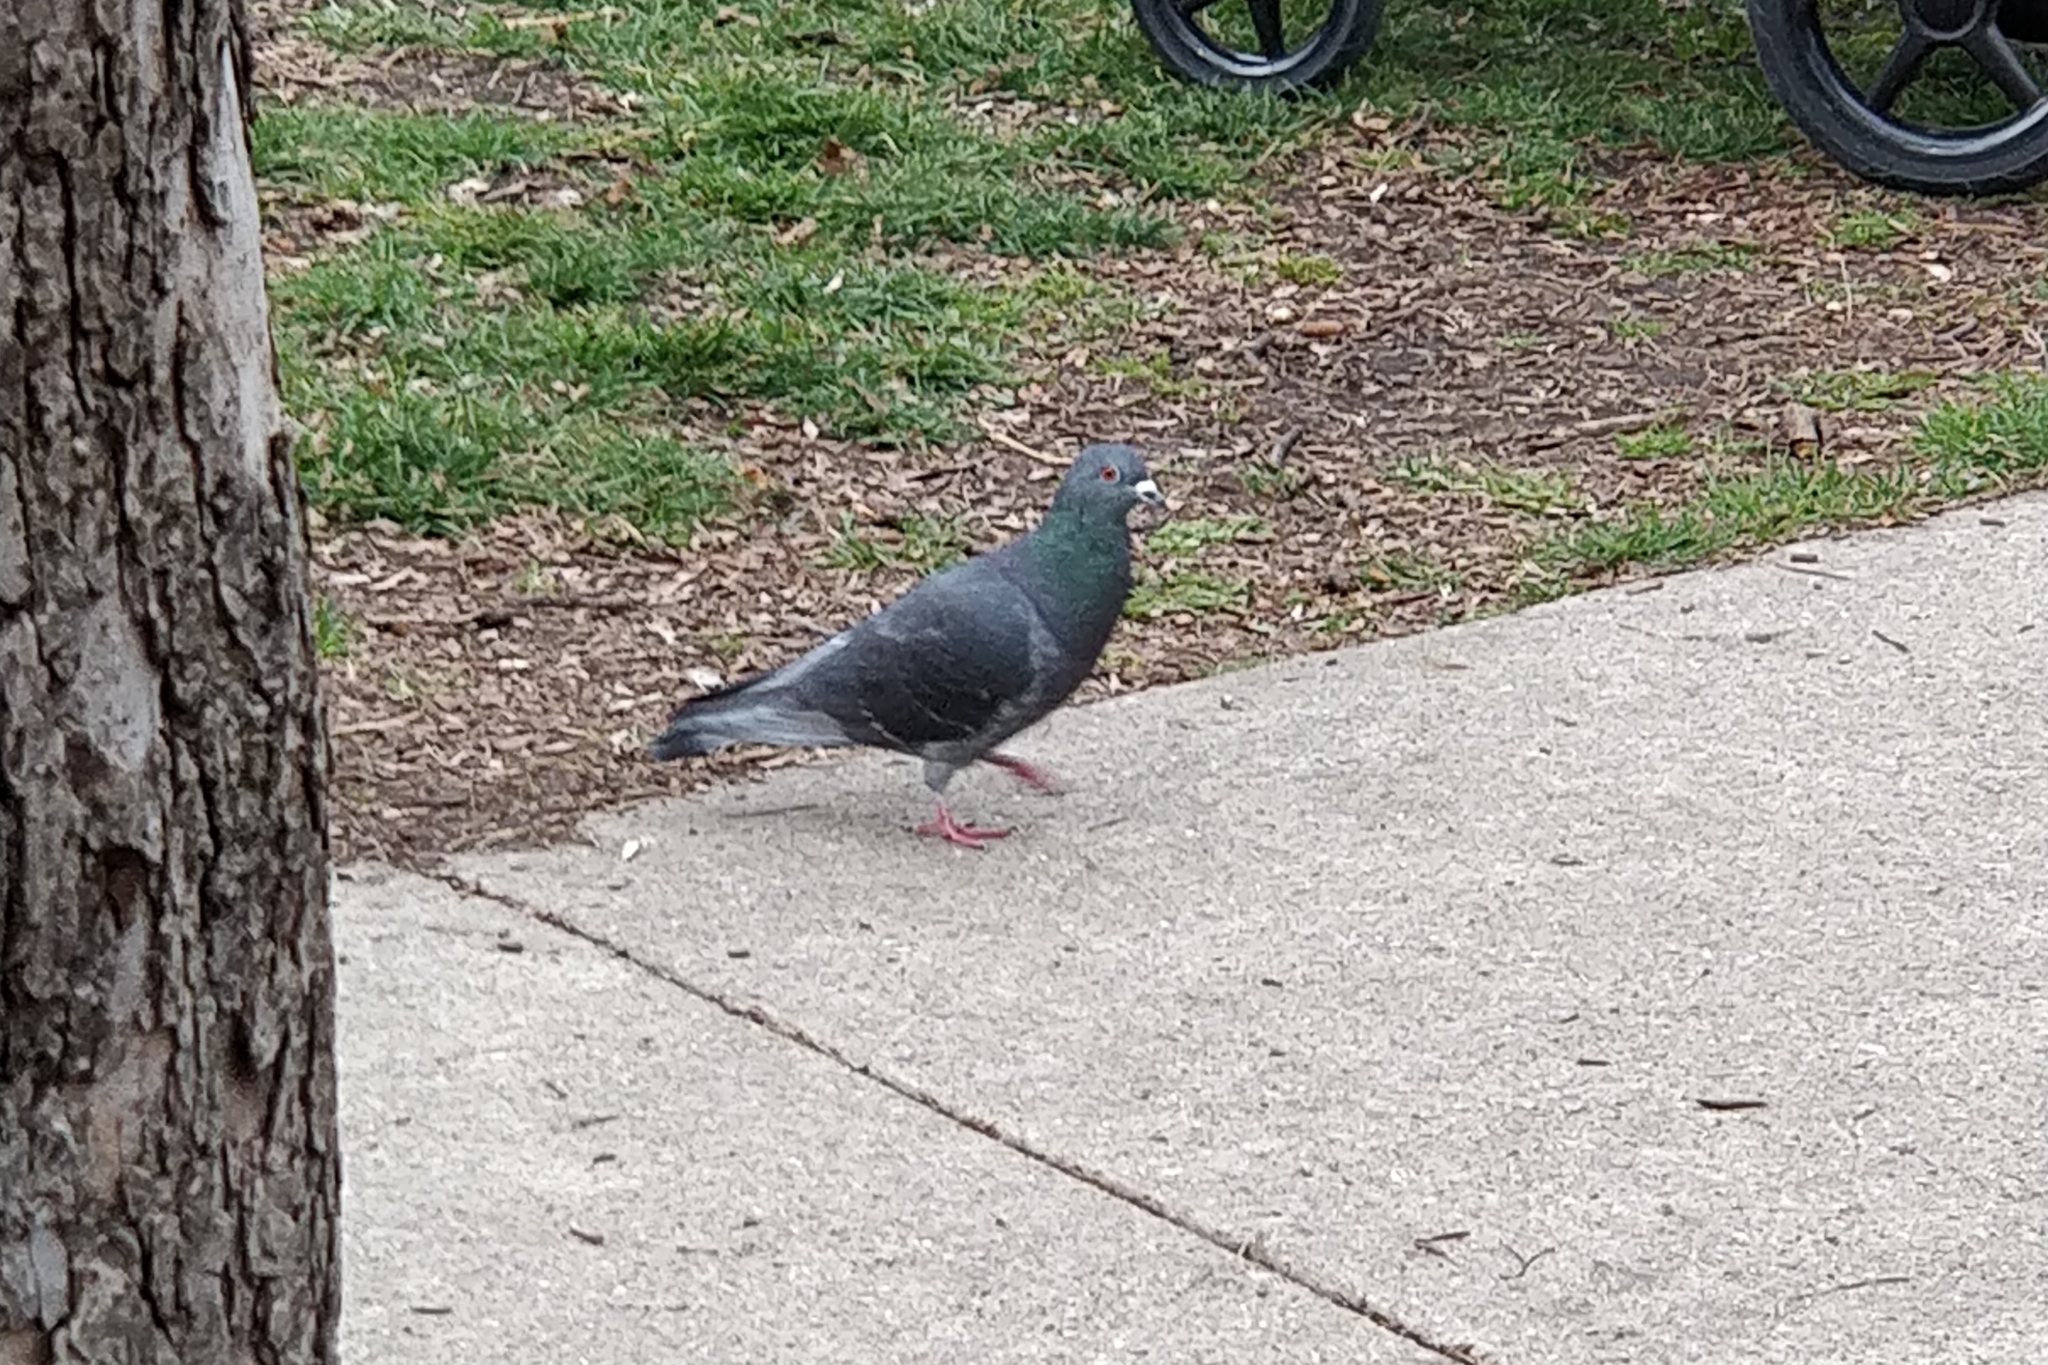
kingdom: Animalia
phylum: Chordata
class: Aves
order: Columbiformes
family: Columbidae
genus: Columba
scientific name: Columba livia
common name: Rock pigeon
